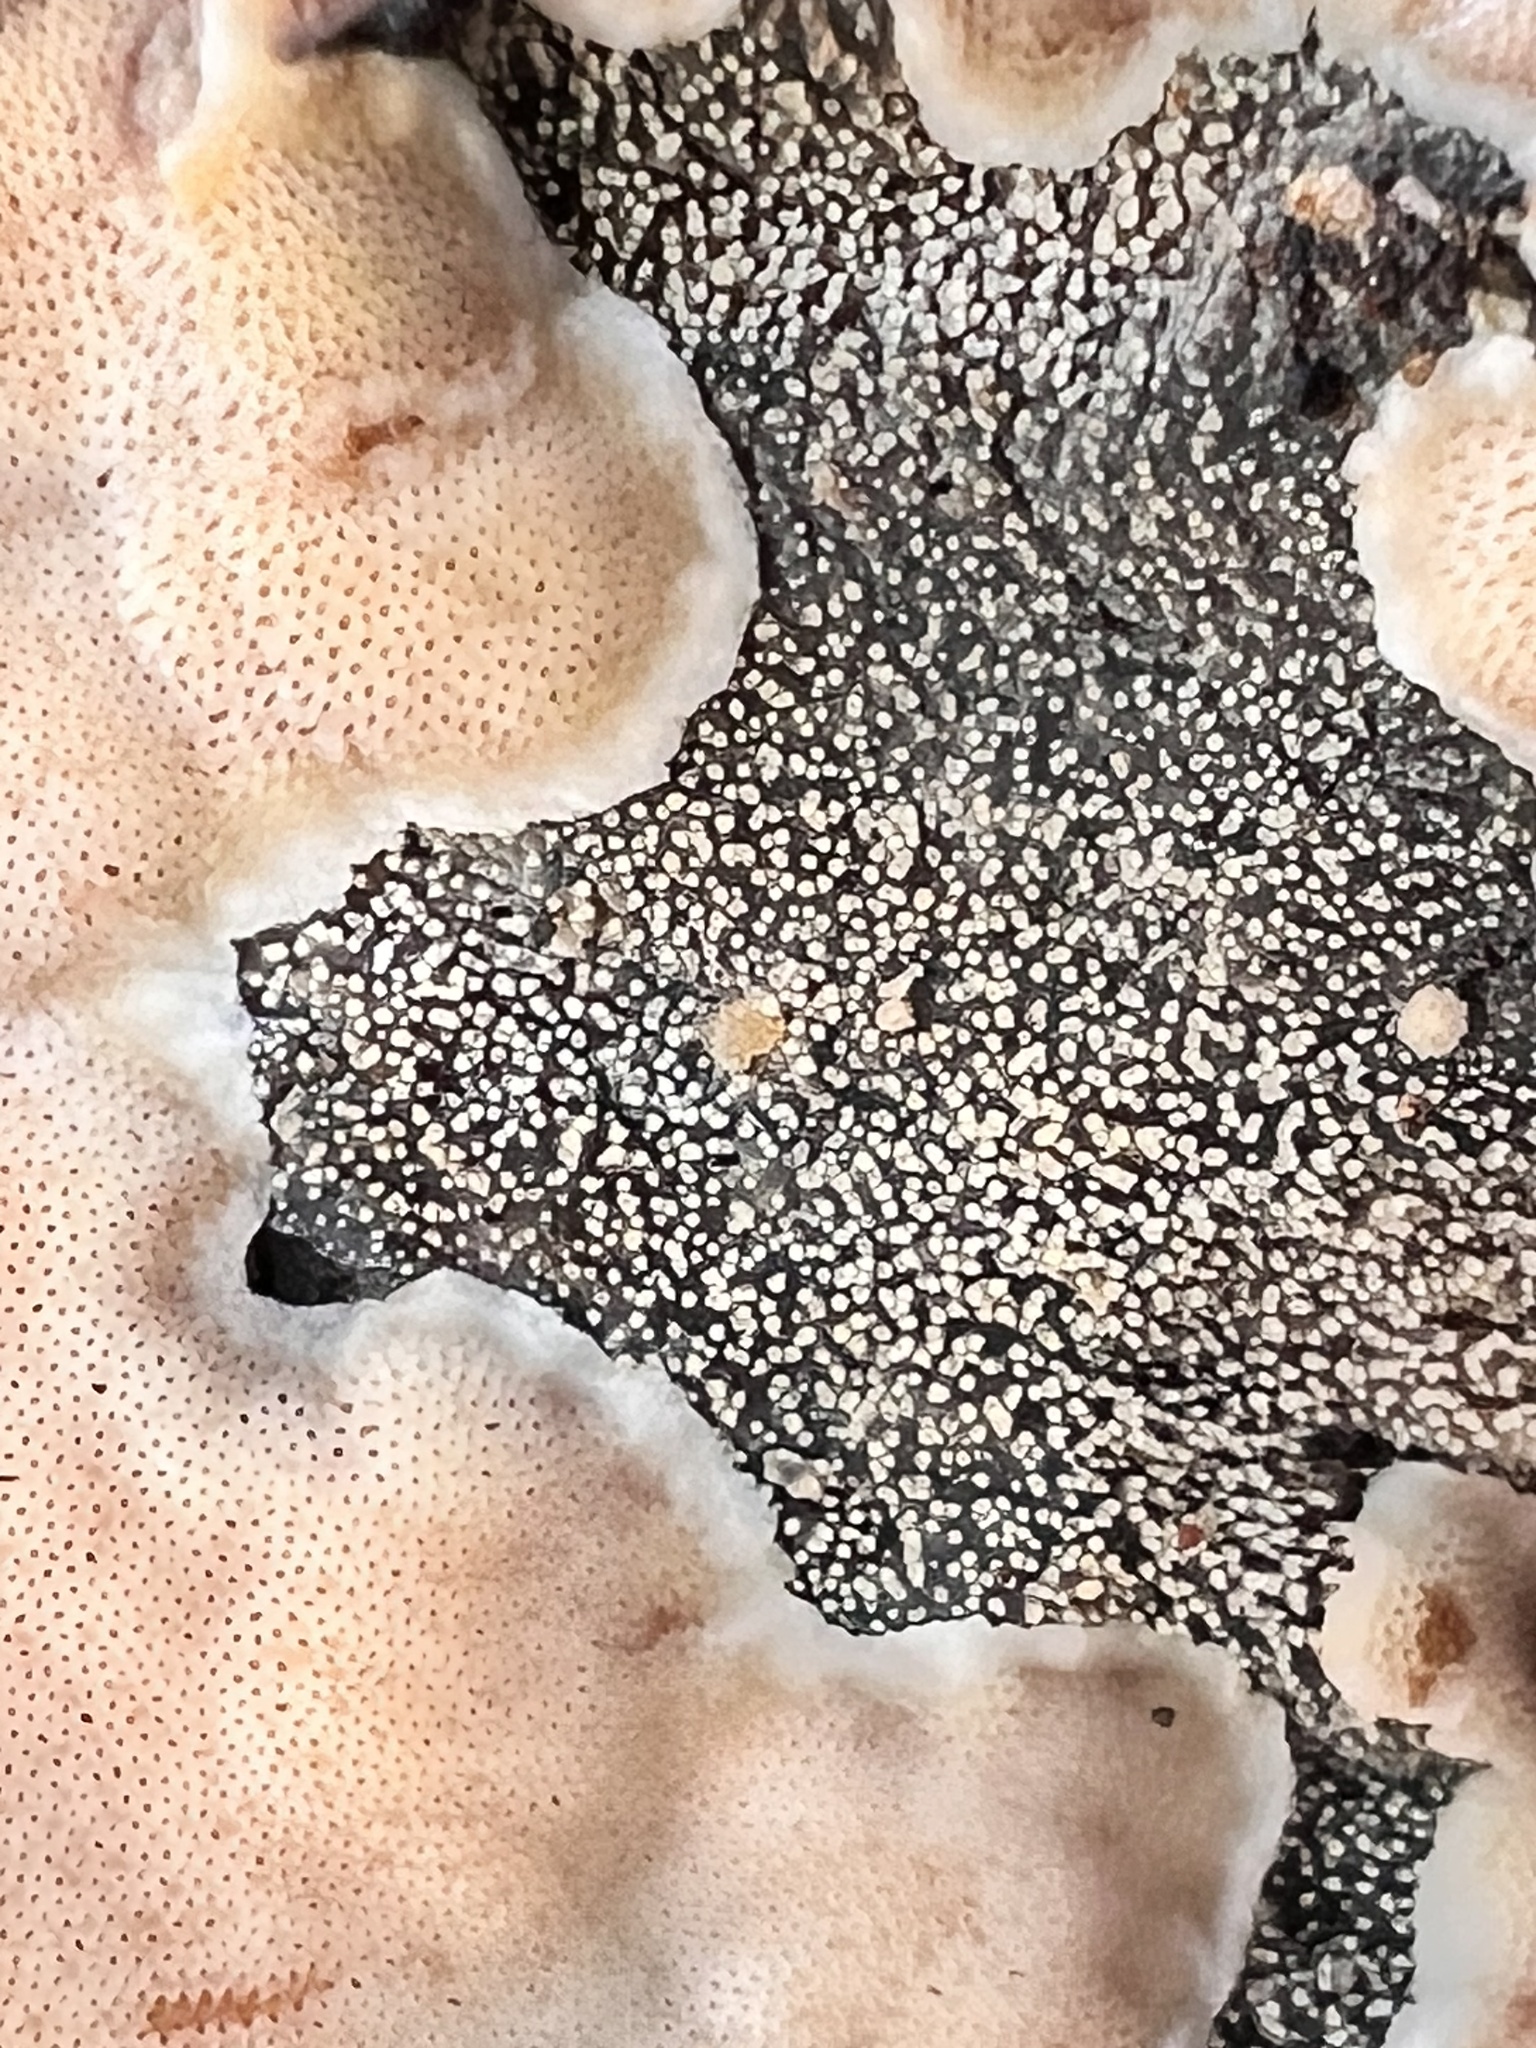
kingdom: Fungi
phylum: Basidiomycota
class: Agaricomycetes
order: Polyporales
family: Meruliaceae
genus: Bulbillomyces
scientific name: Bulbillomyces farinosus
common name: Couscous crust
